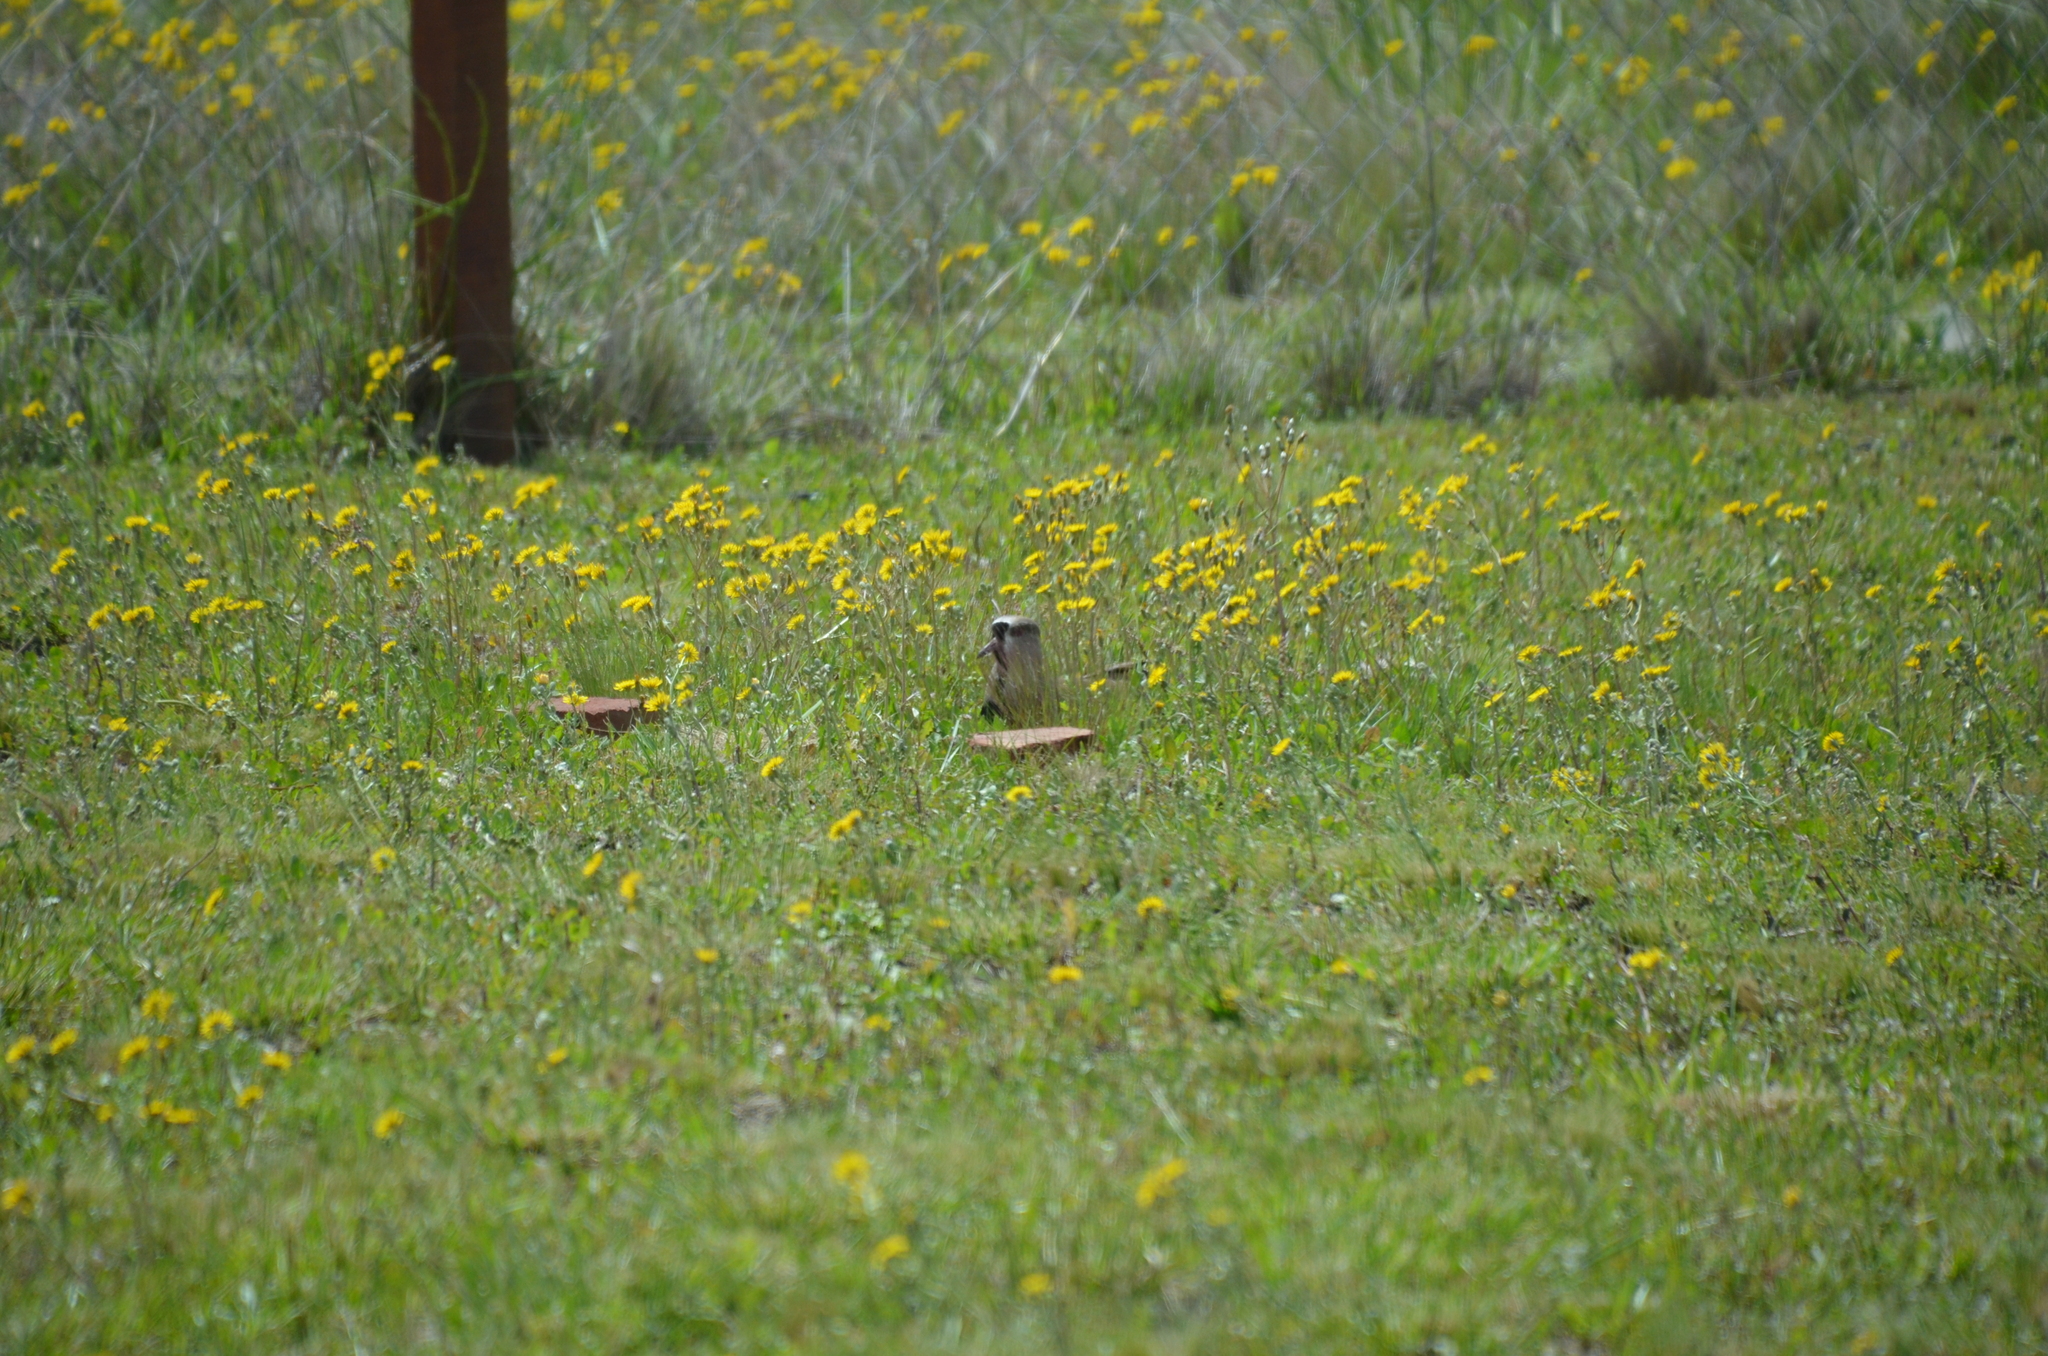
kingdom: Animalia
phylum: Chordata
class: Aves
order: Charadriiformes
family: Charadriidae
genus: Vanellus
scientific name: Vanellus chilensis
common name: Southern lapwing
